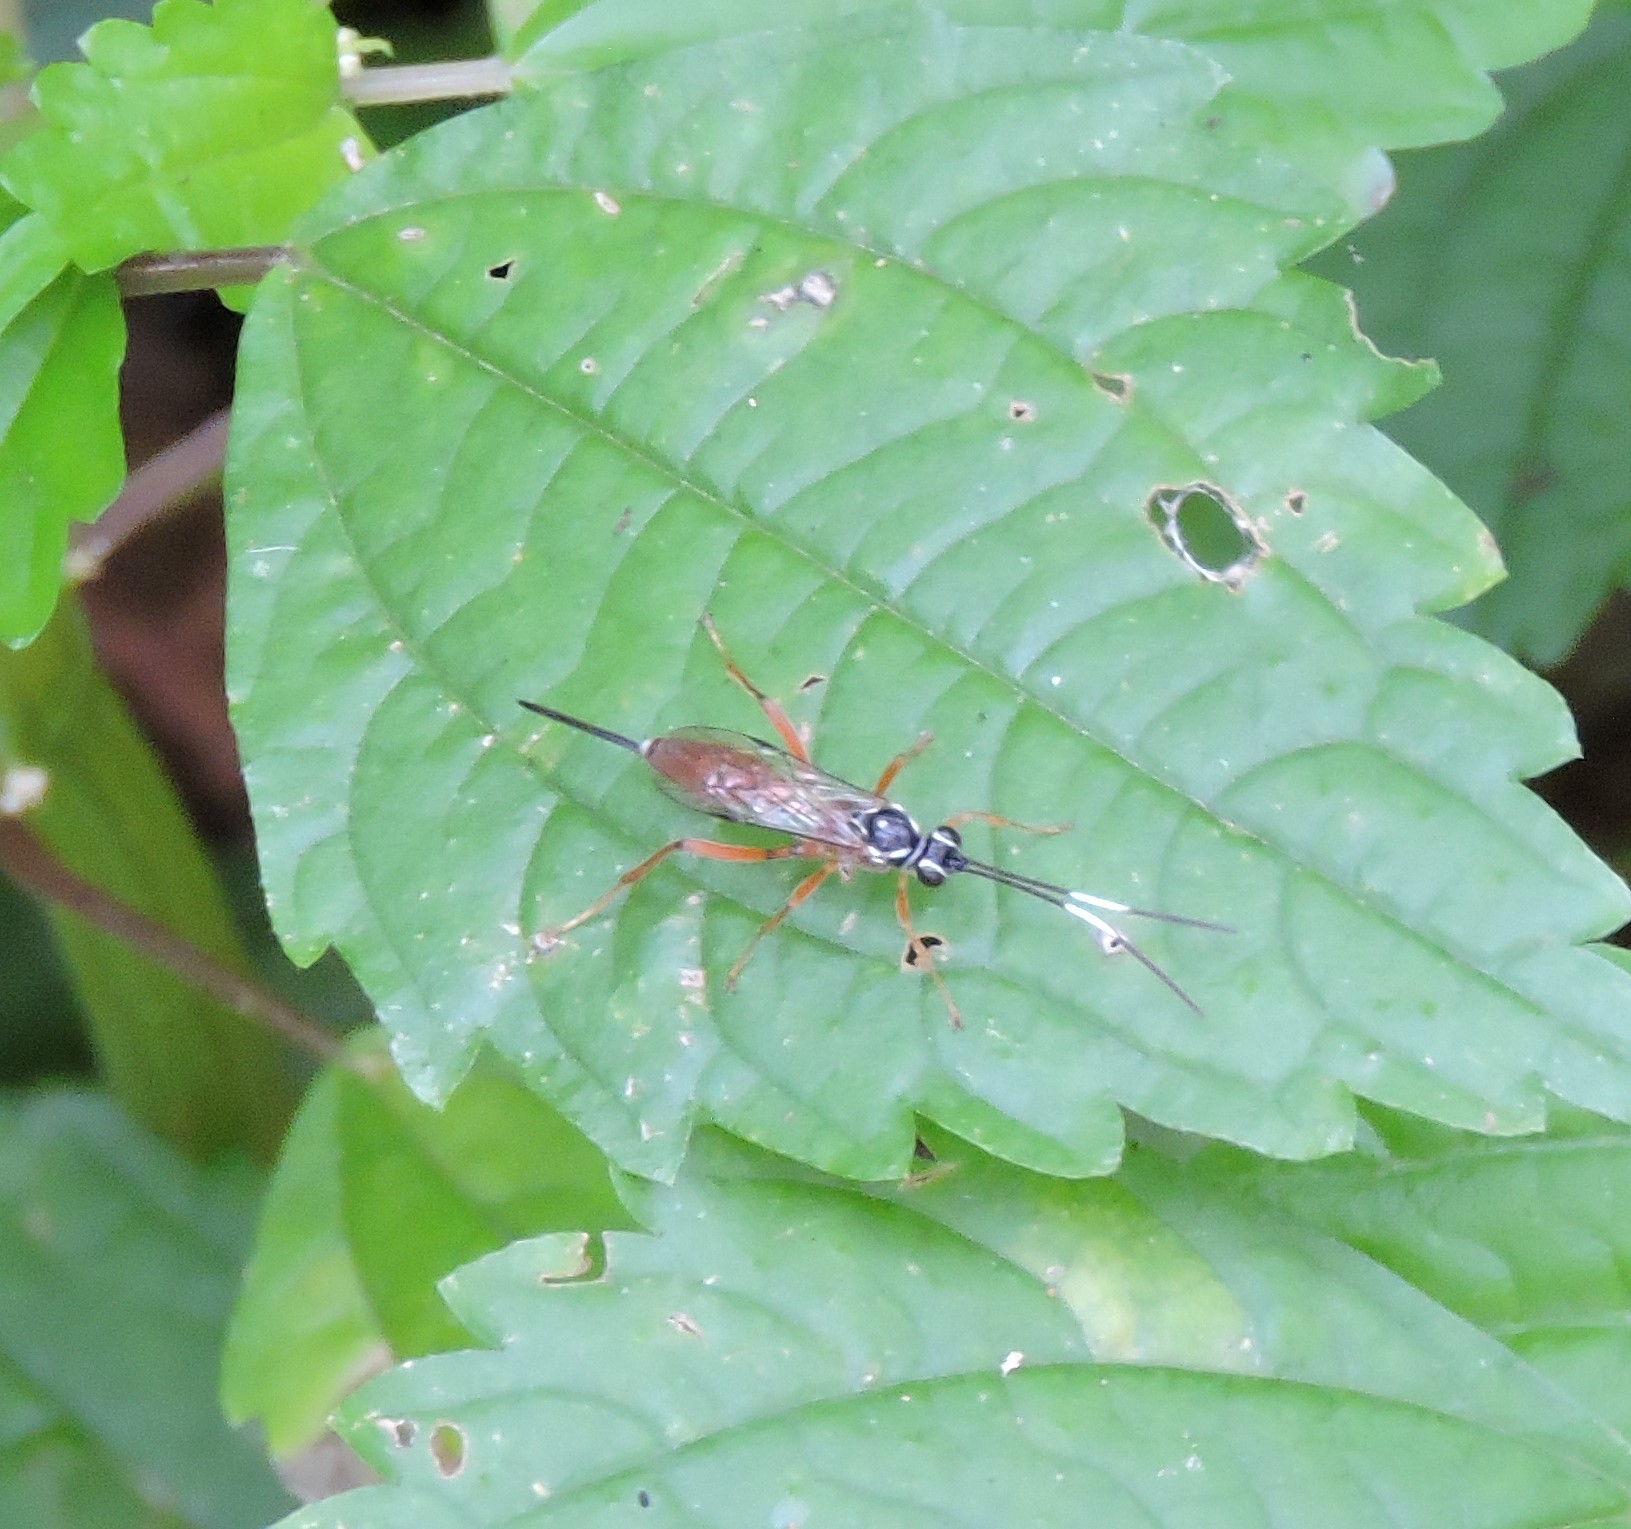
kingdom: Animalia
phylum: Arthropoda
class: Insecta
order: Hymenoptera
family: Ichneumonidae
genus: Mesostenus
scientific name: Mesostenus thoracicus
